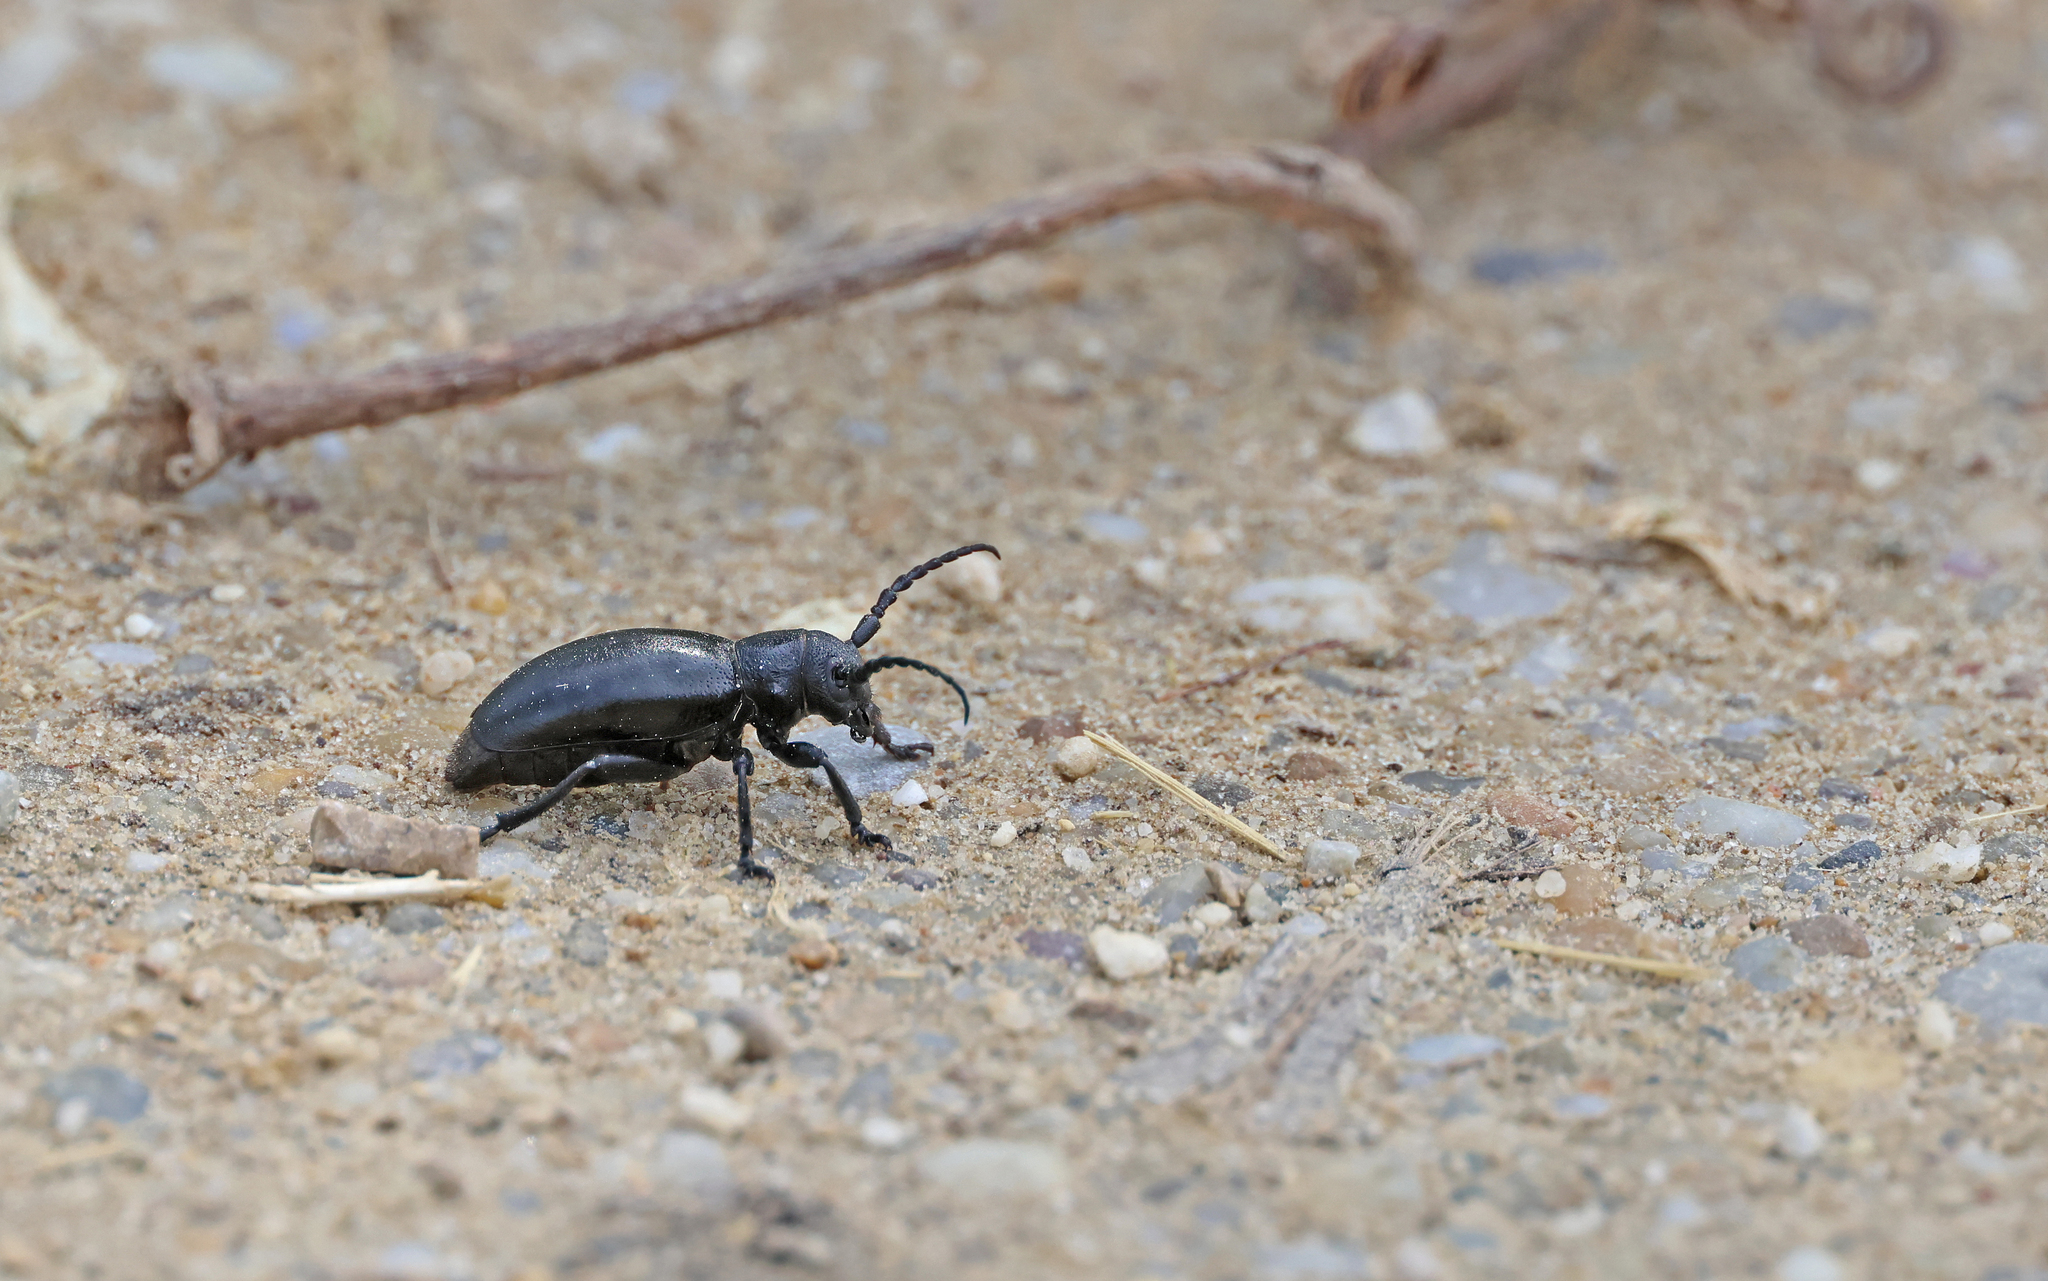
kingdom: Animalia
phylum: Arthropoda
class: Insecta
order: Coleoptera
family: Cerambycidae
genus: Dorcadion
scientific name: Dorcadion aethiops
